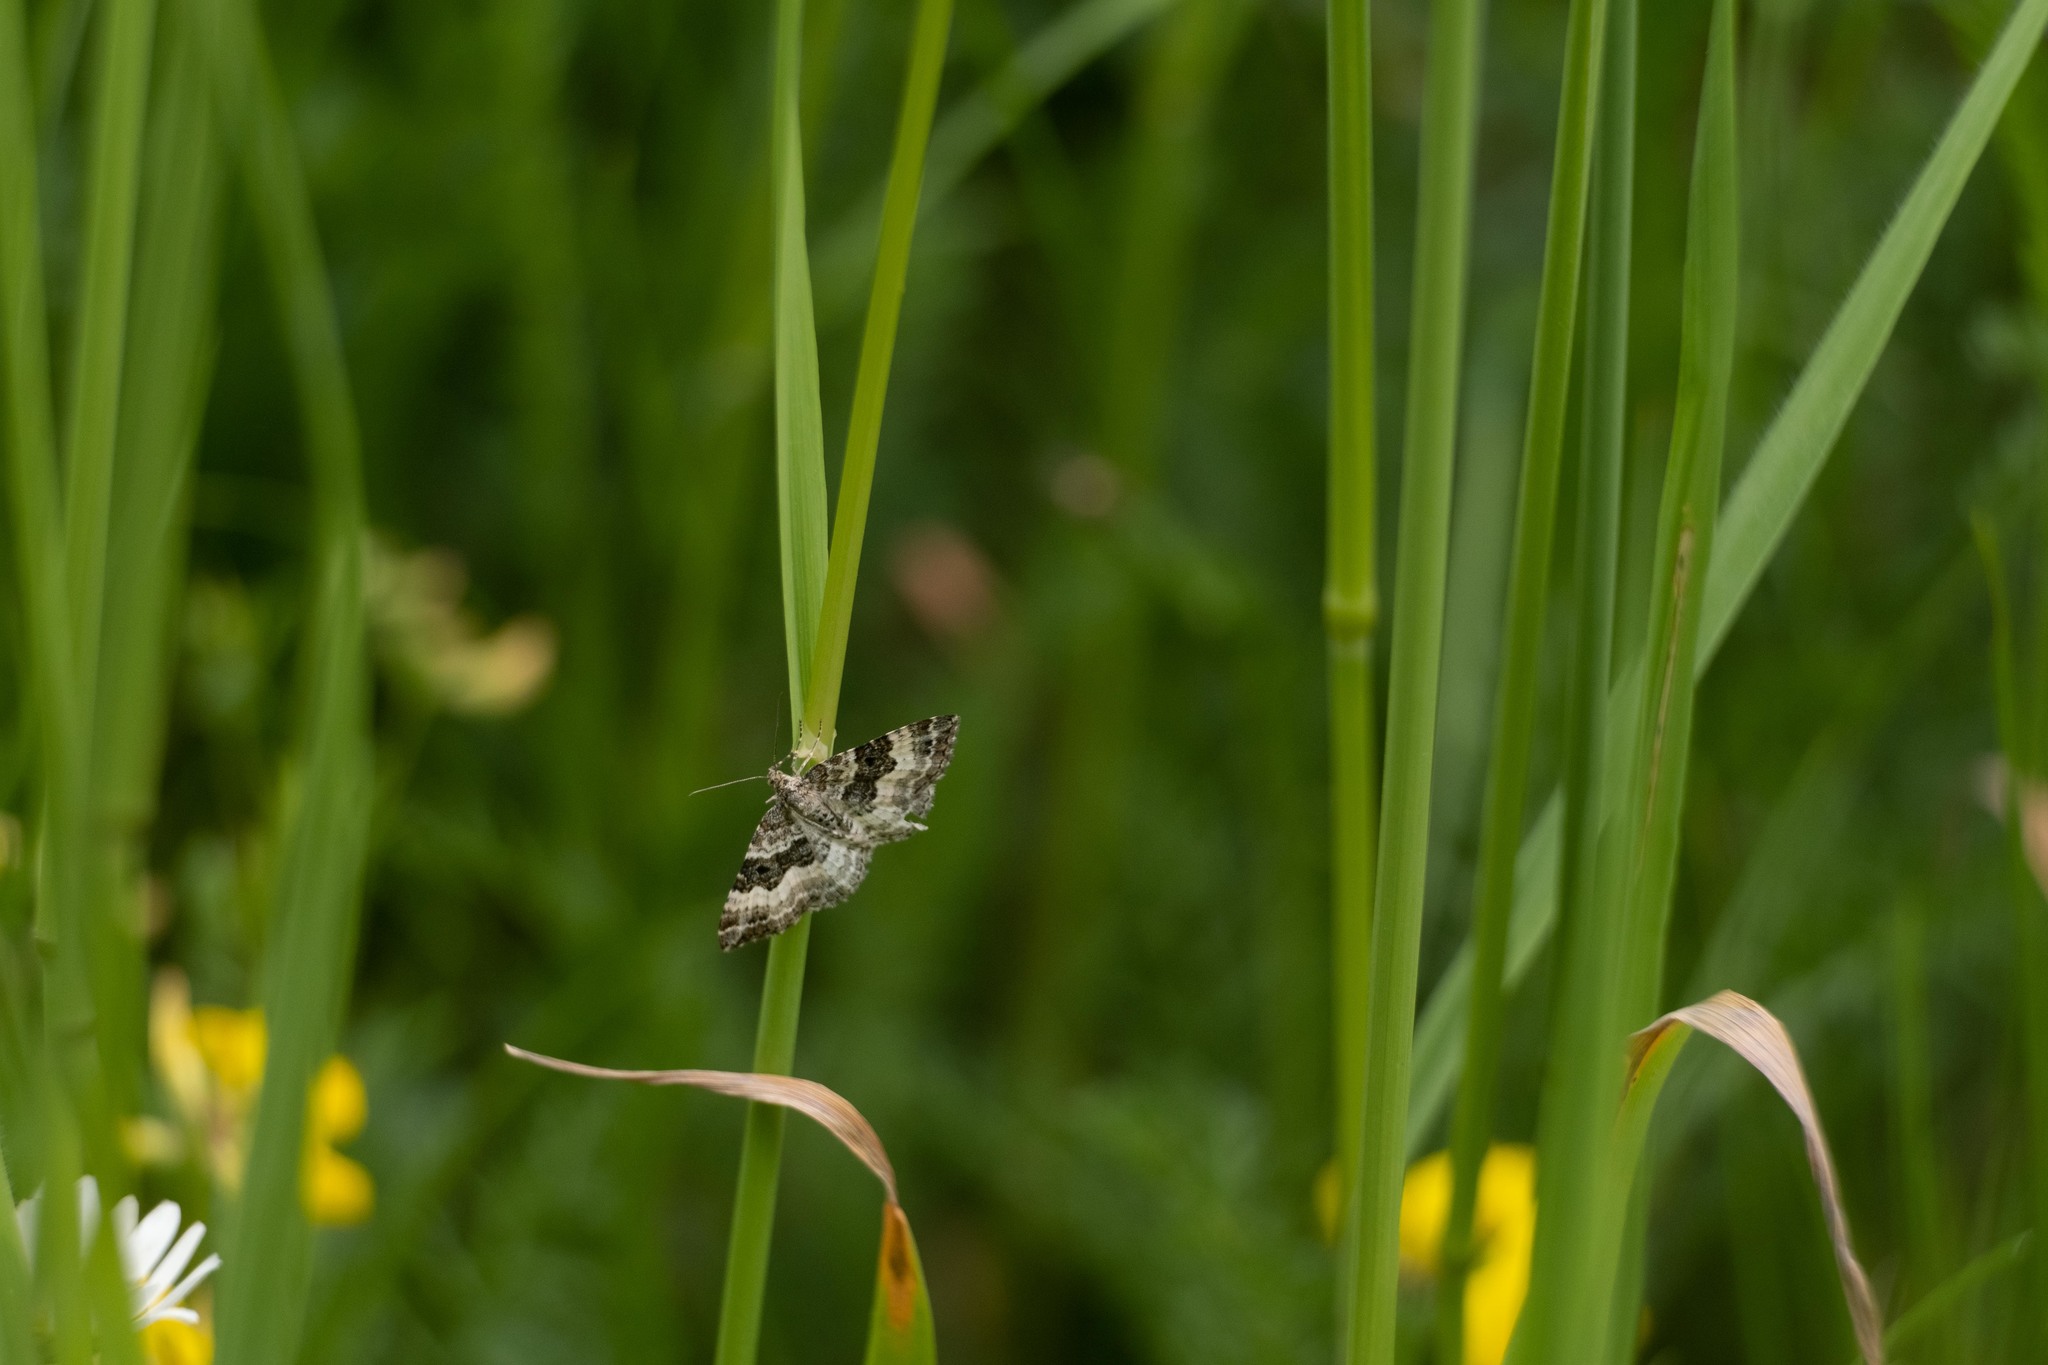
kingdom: Animalia
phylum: Arthropoda
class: Insecta
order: Lepidoptera
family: Geometridae
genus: Epirrhoe
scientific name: Epirrhoe alternata
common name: Common carpet
